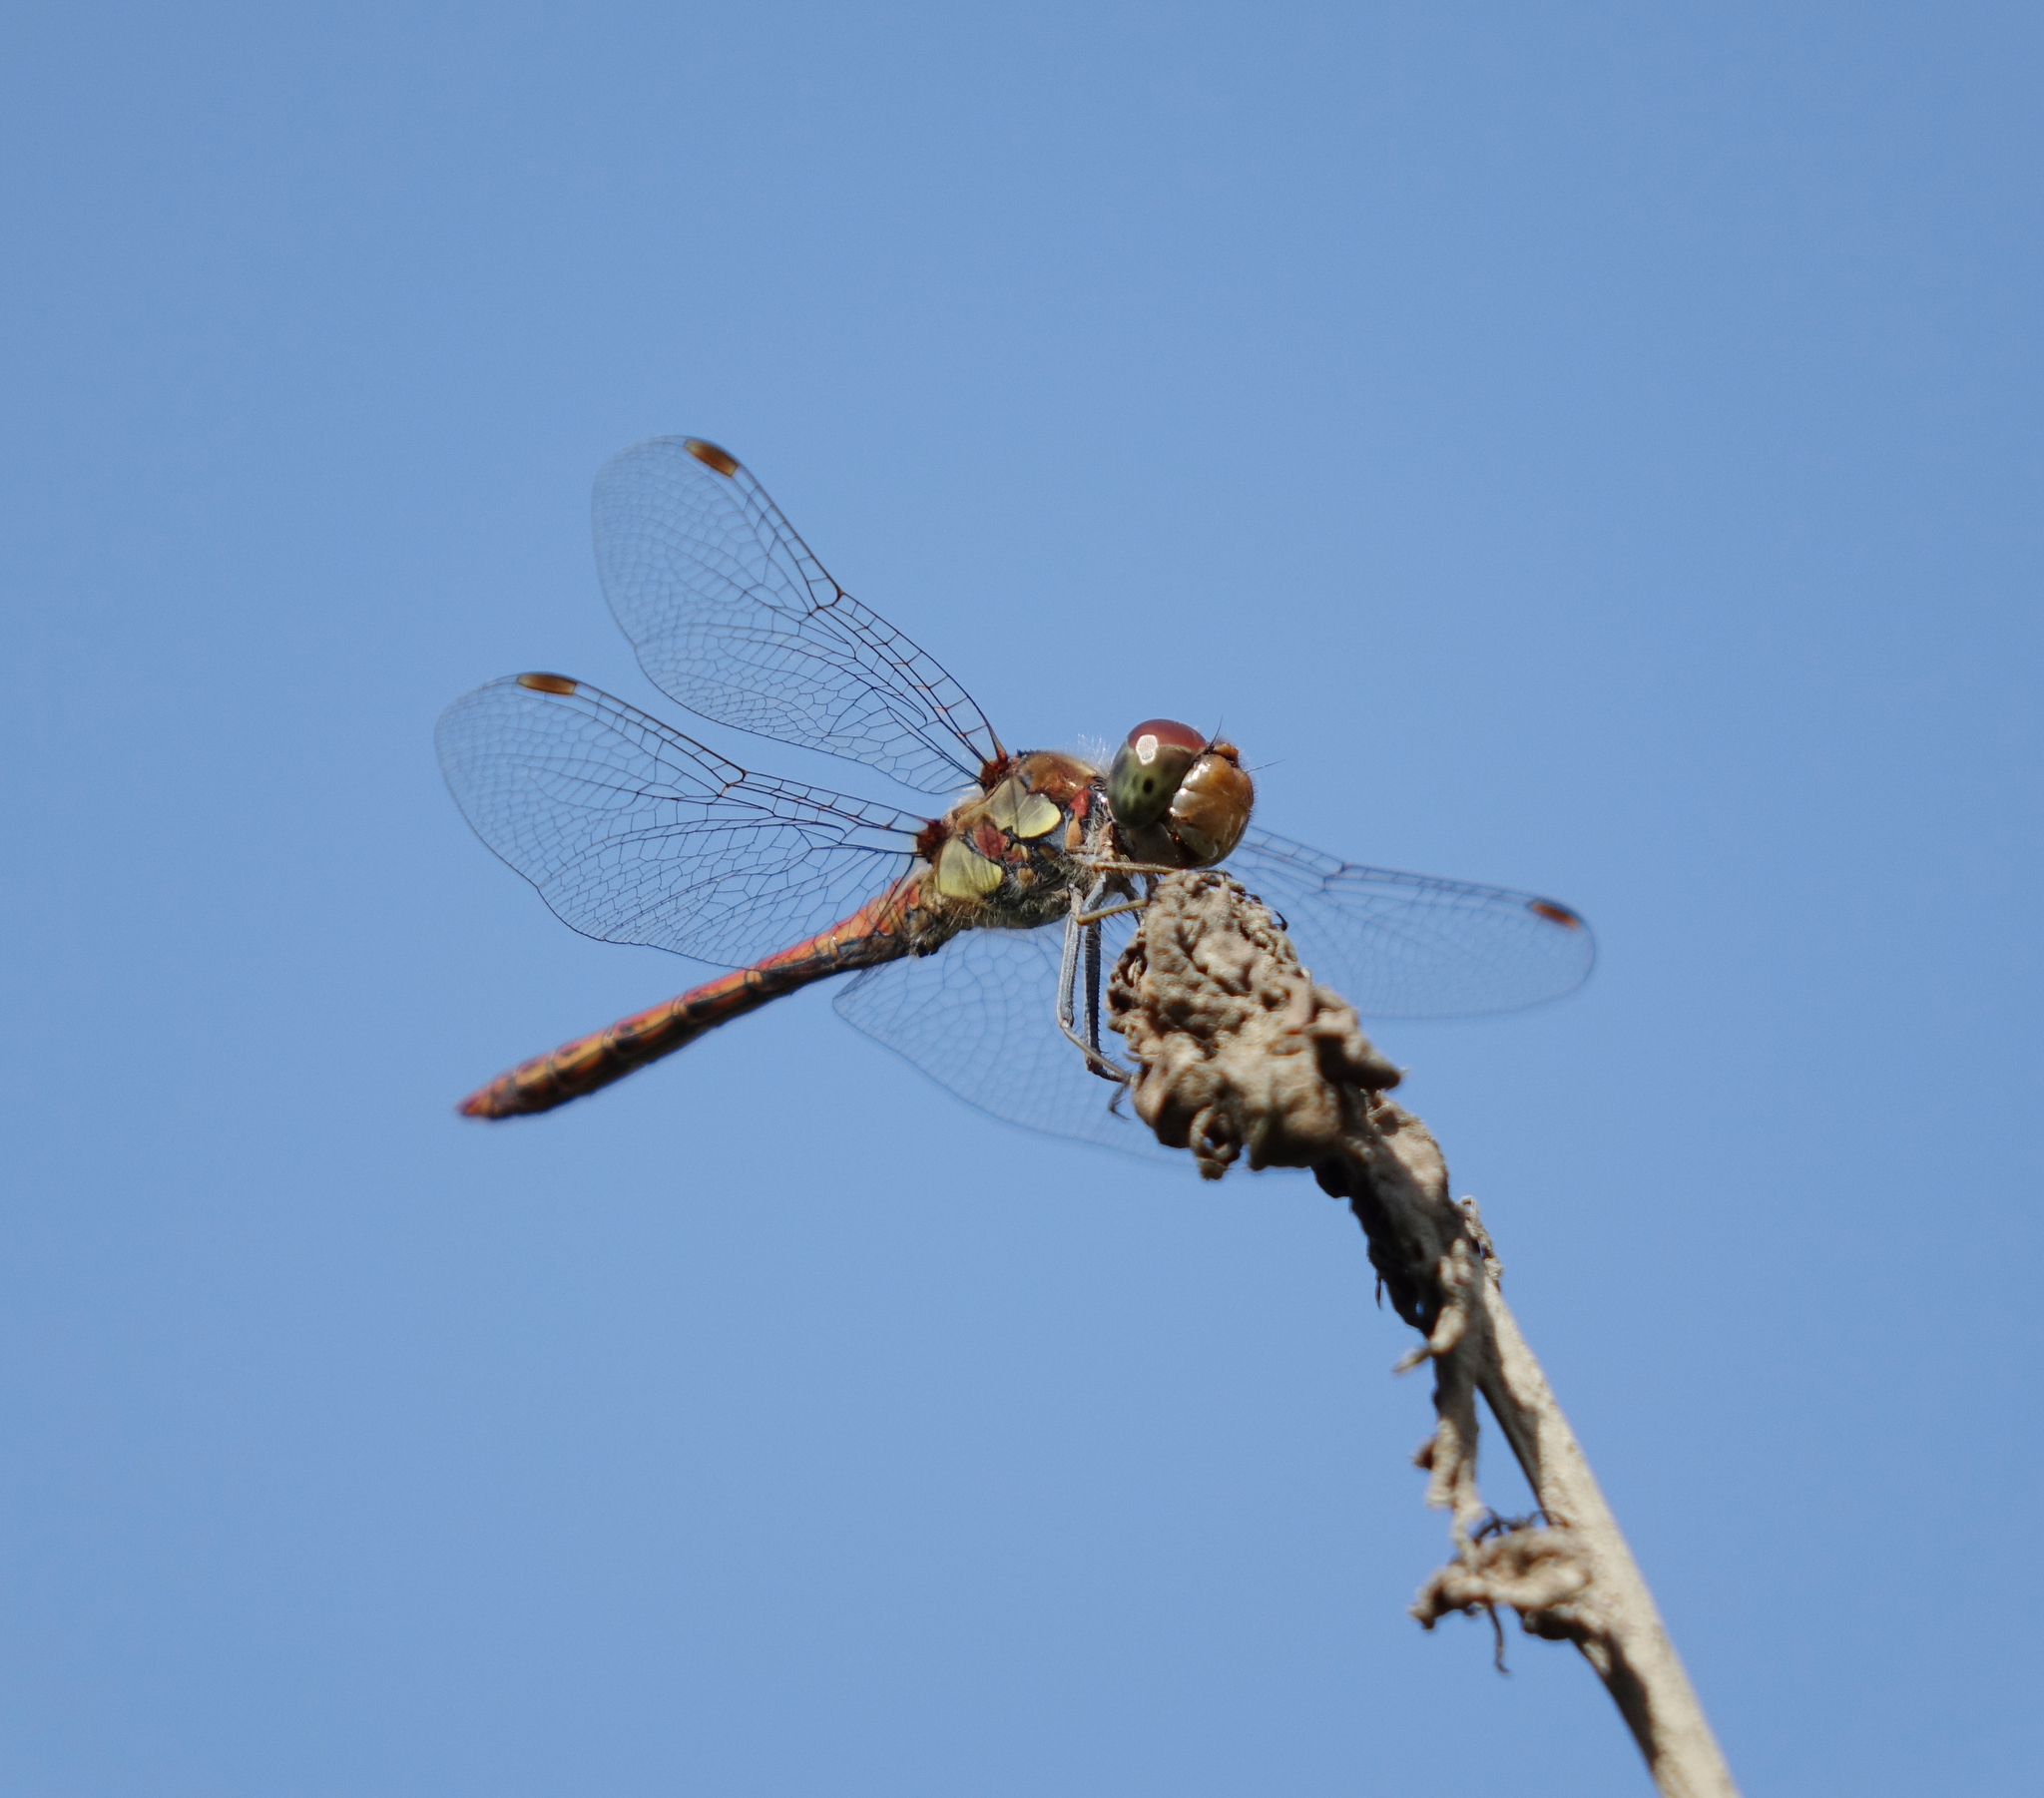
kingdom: Animalia
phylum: Arthropoda
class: Insecta
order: Odonata
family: Libellulidae
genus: Sympetrum
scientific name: Sympetrum striolatum
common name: Common darter
